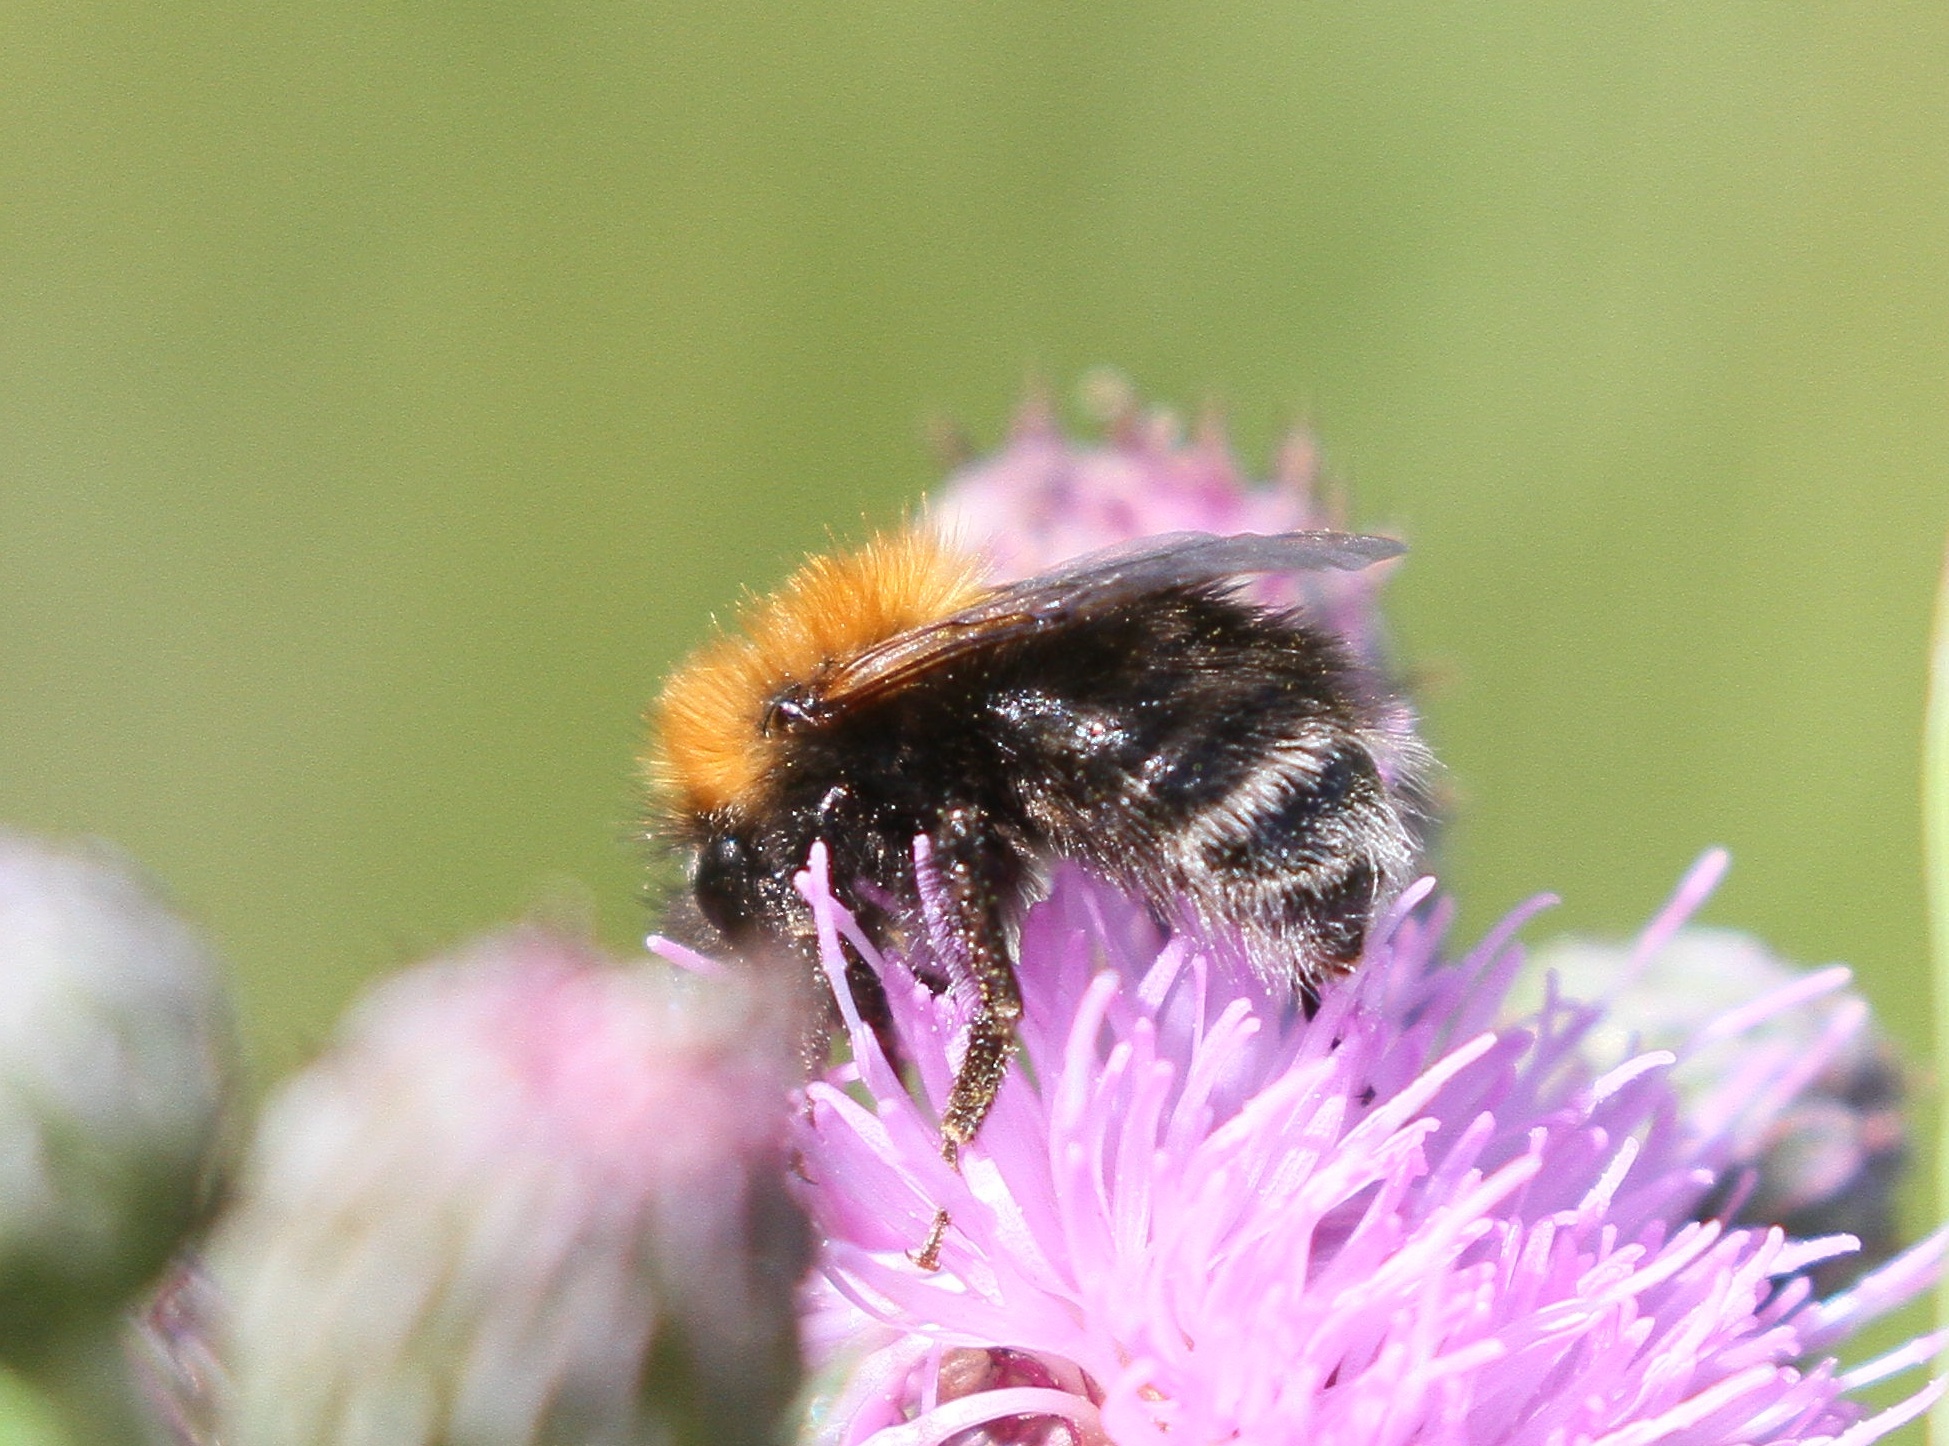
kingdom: Animalia
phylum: Arthropoda
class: Insecta
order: Hymenoptera
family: Apidae
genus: Bombus
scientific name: Bombus hypnorum
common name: New garden bumblebee
